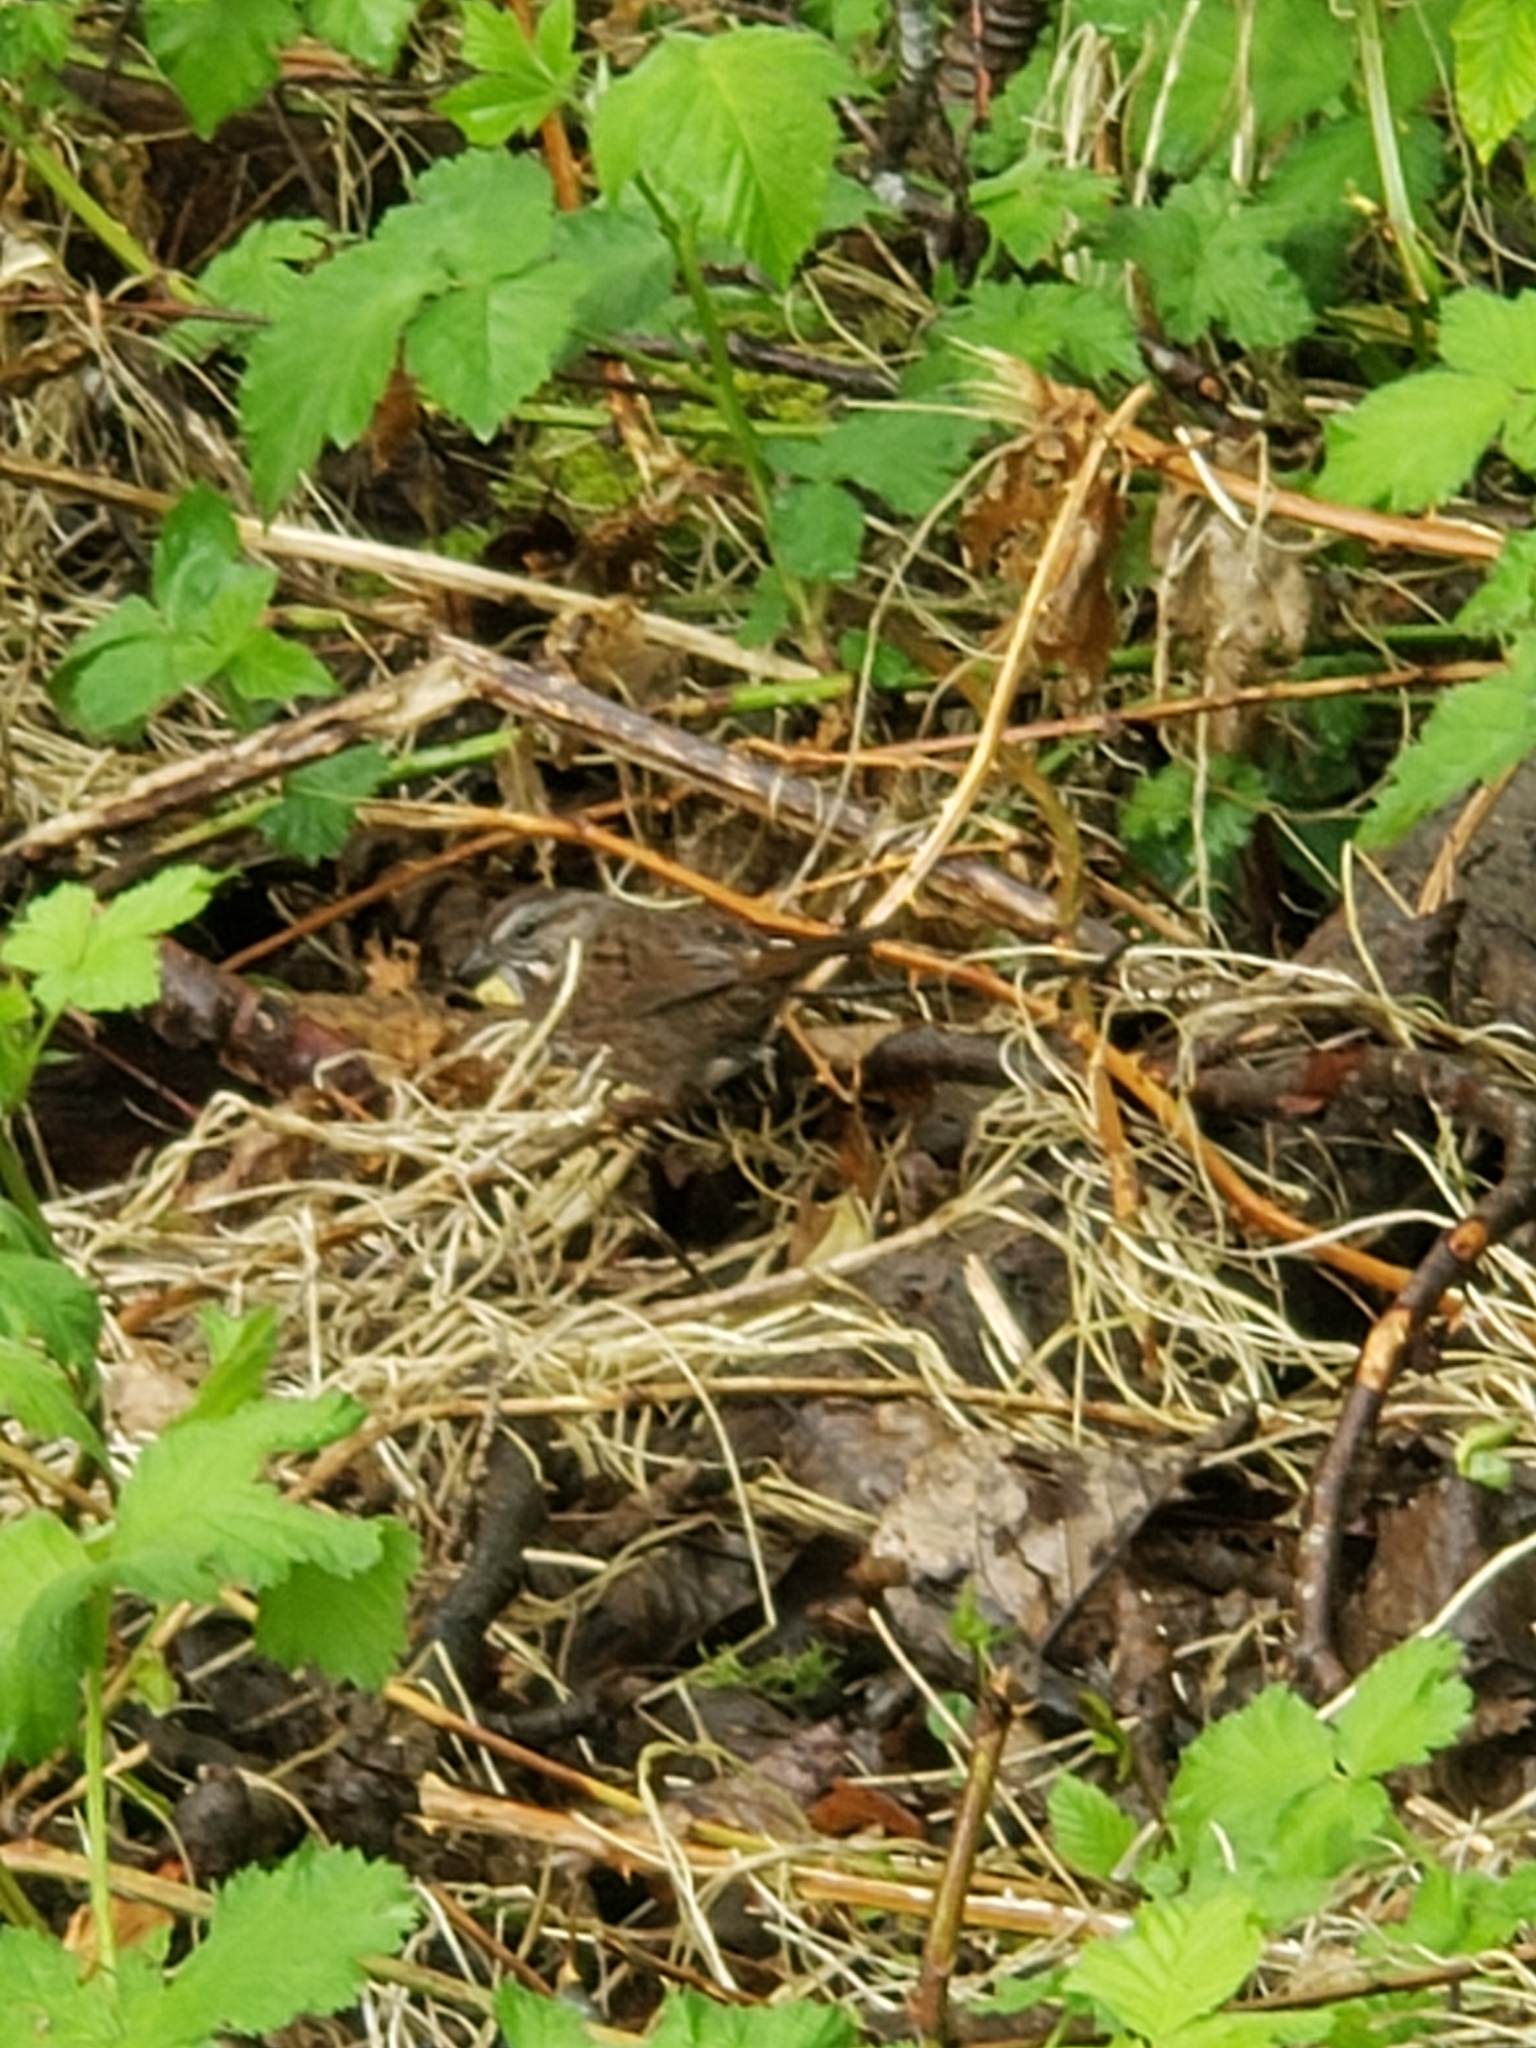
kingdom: Animalia
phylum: Chordata
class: Aves
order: Passeriformes
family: Passerellidae
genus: Melospiza
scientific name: Melospiza melodia
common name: Song sparrow
